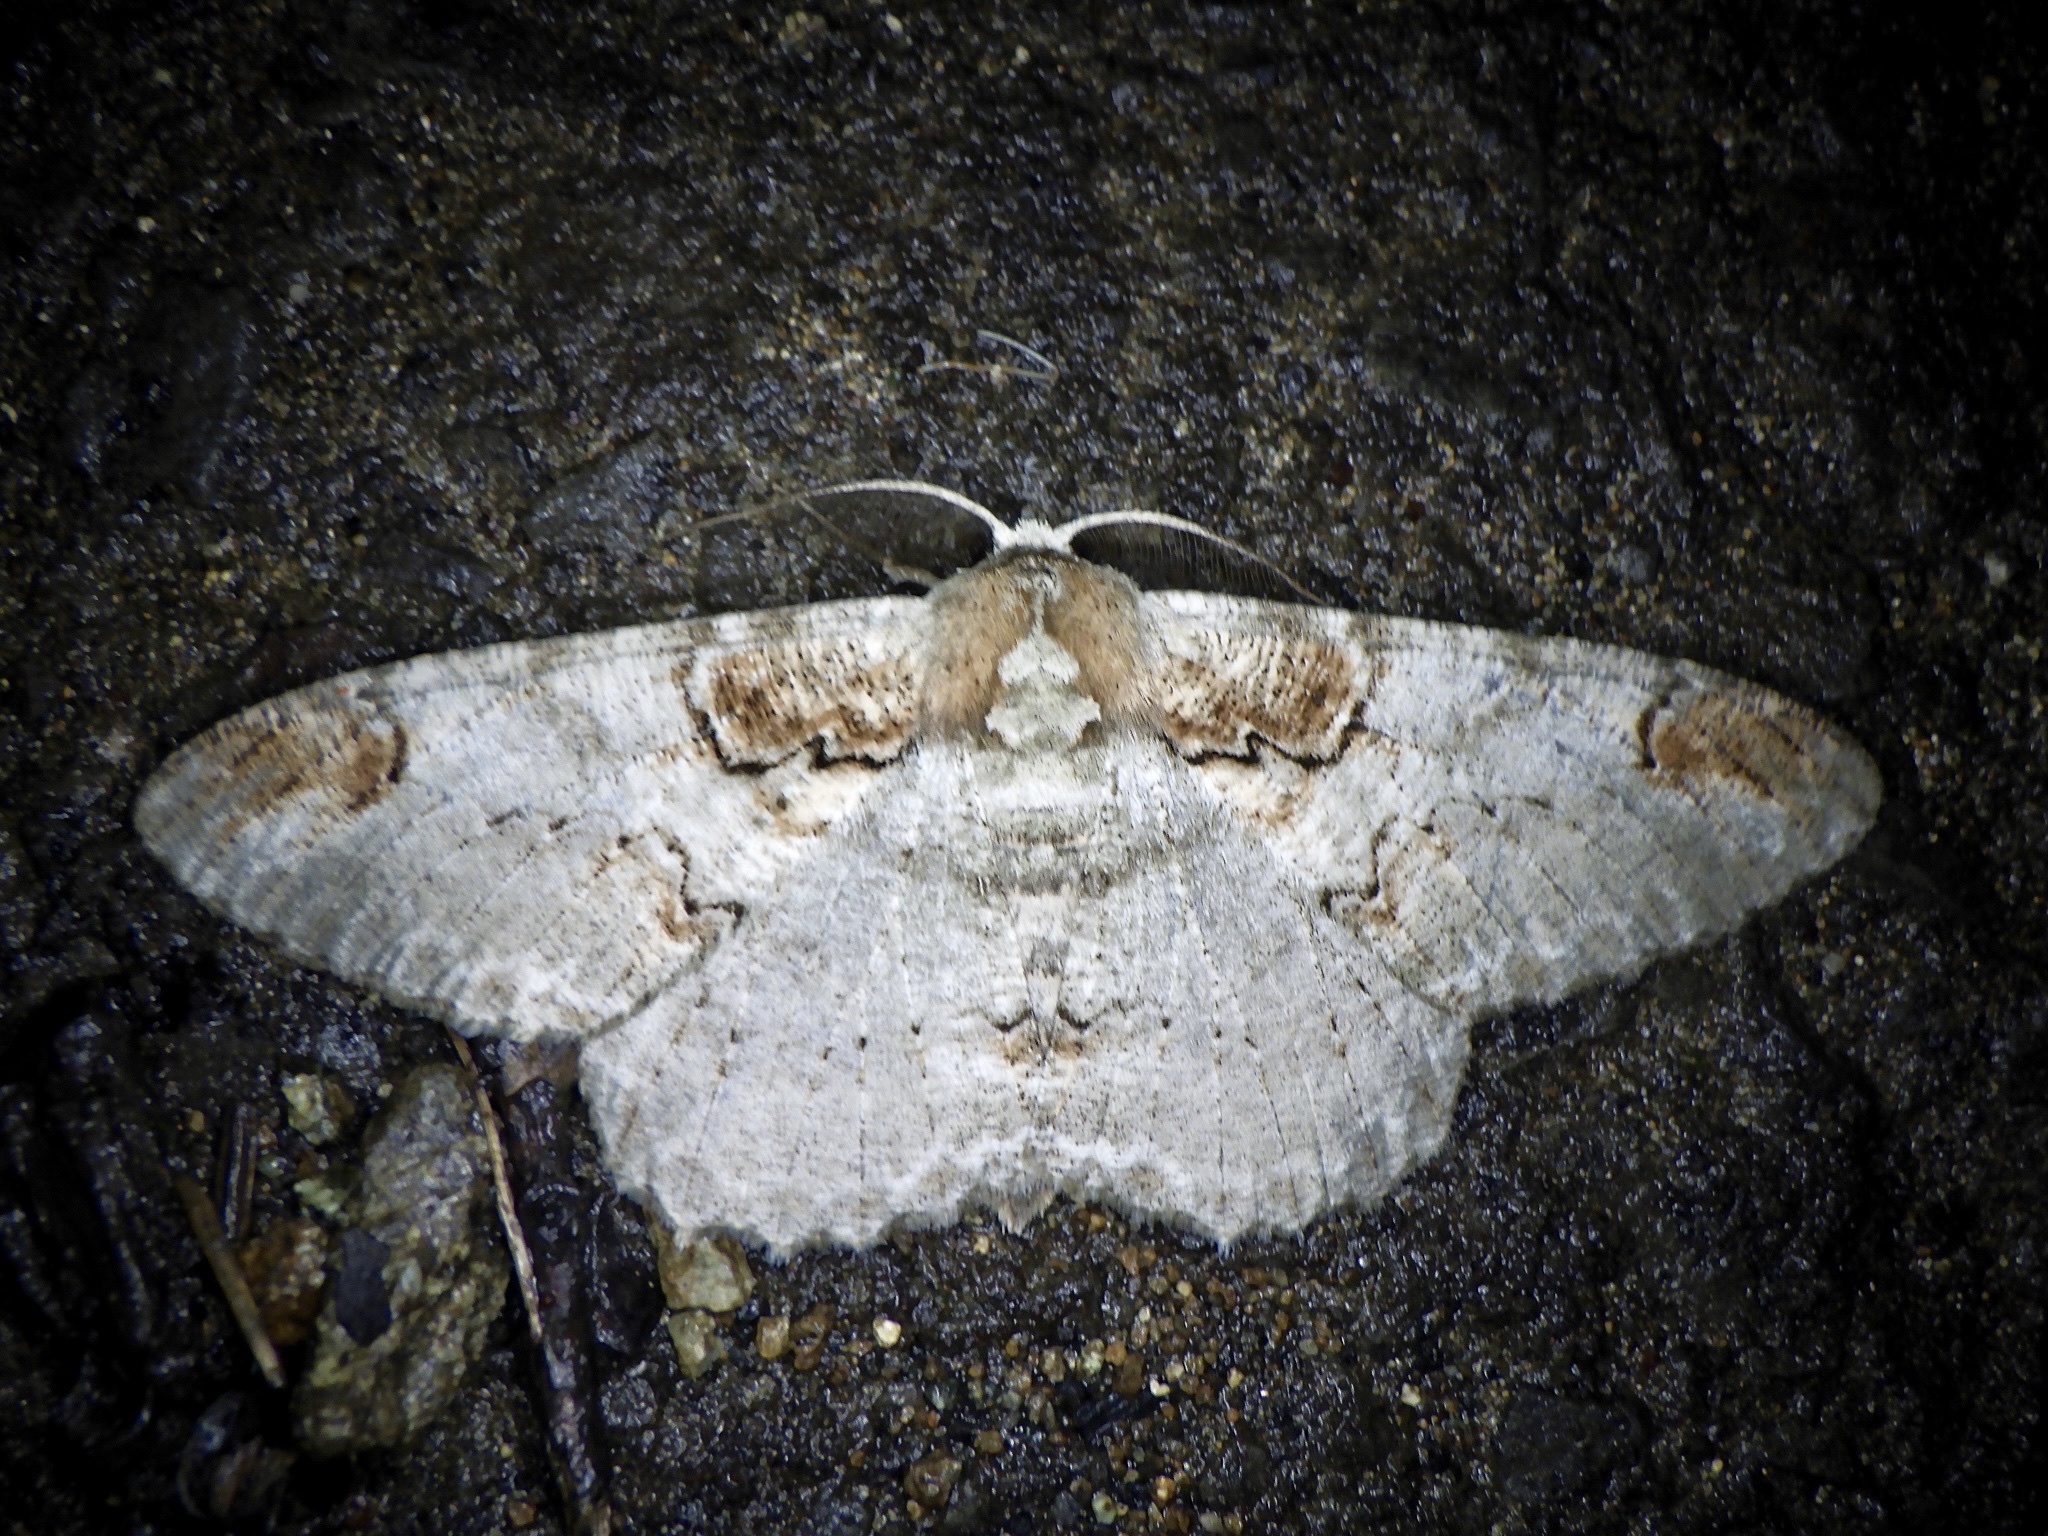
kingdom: Animalia
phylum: Arthropoda
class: Insecta
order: Lepidoptera
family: Geometridae
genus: Amraica
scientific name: Amraica superans
